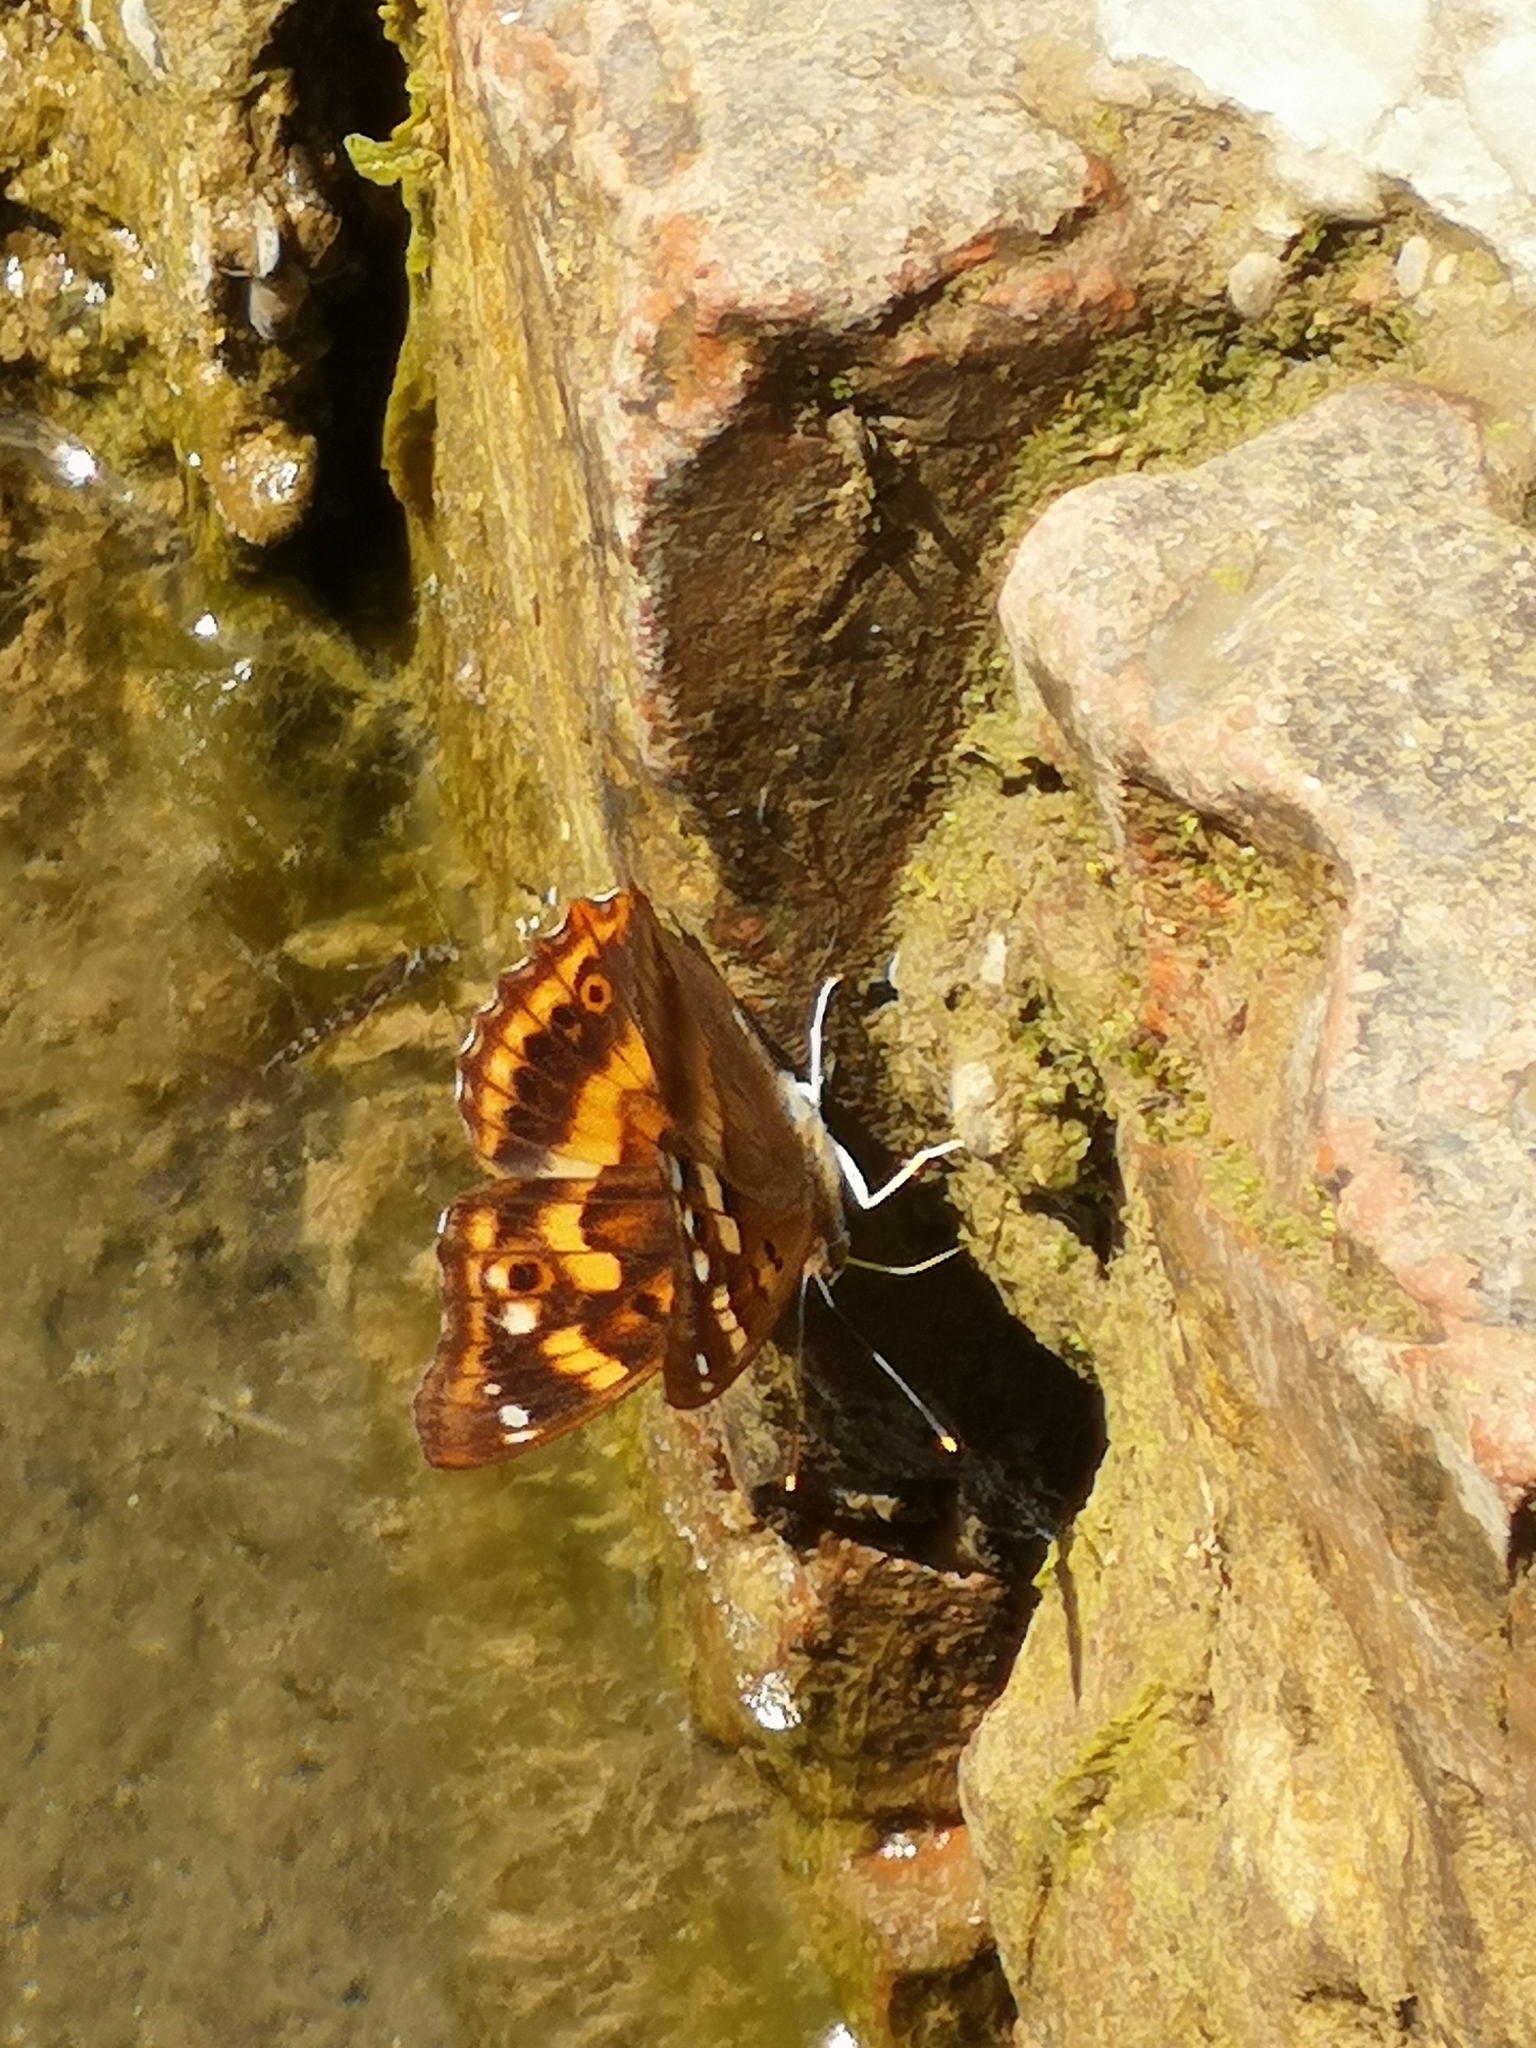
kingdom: Animalia
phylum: Arthropoda
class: Insecta
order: Lepidoptera
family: Nymphalidae
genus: Apatura
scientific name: Apatura ilia
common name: Lesser purple emperor
